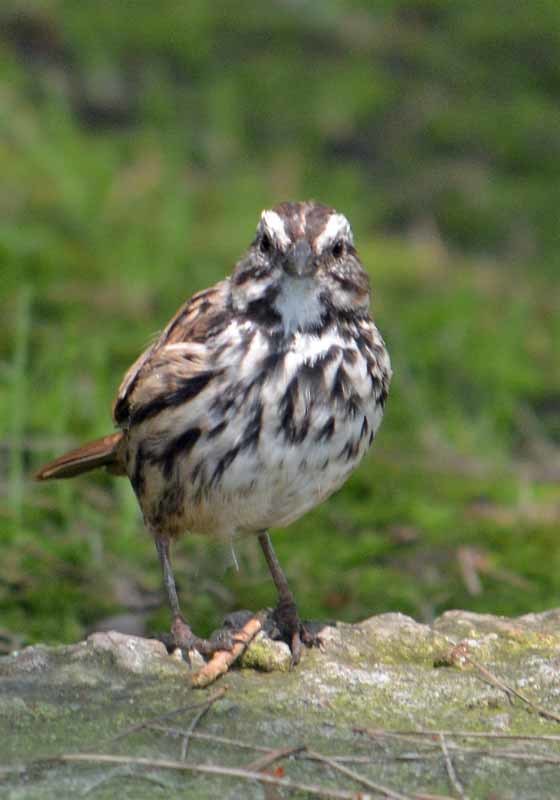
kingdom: Animalia
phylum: Chordata
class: Aves
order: Passeriformes
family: Passerellidae
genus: Melospiza
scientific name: Melospiza melodia
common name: Song sparrow
